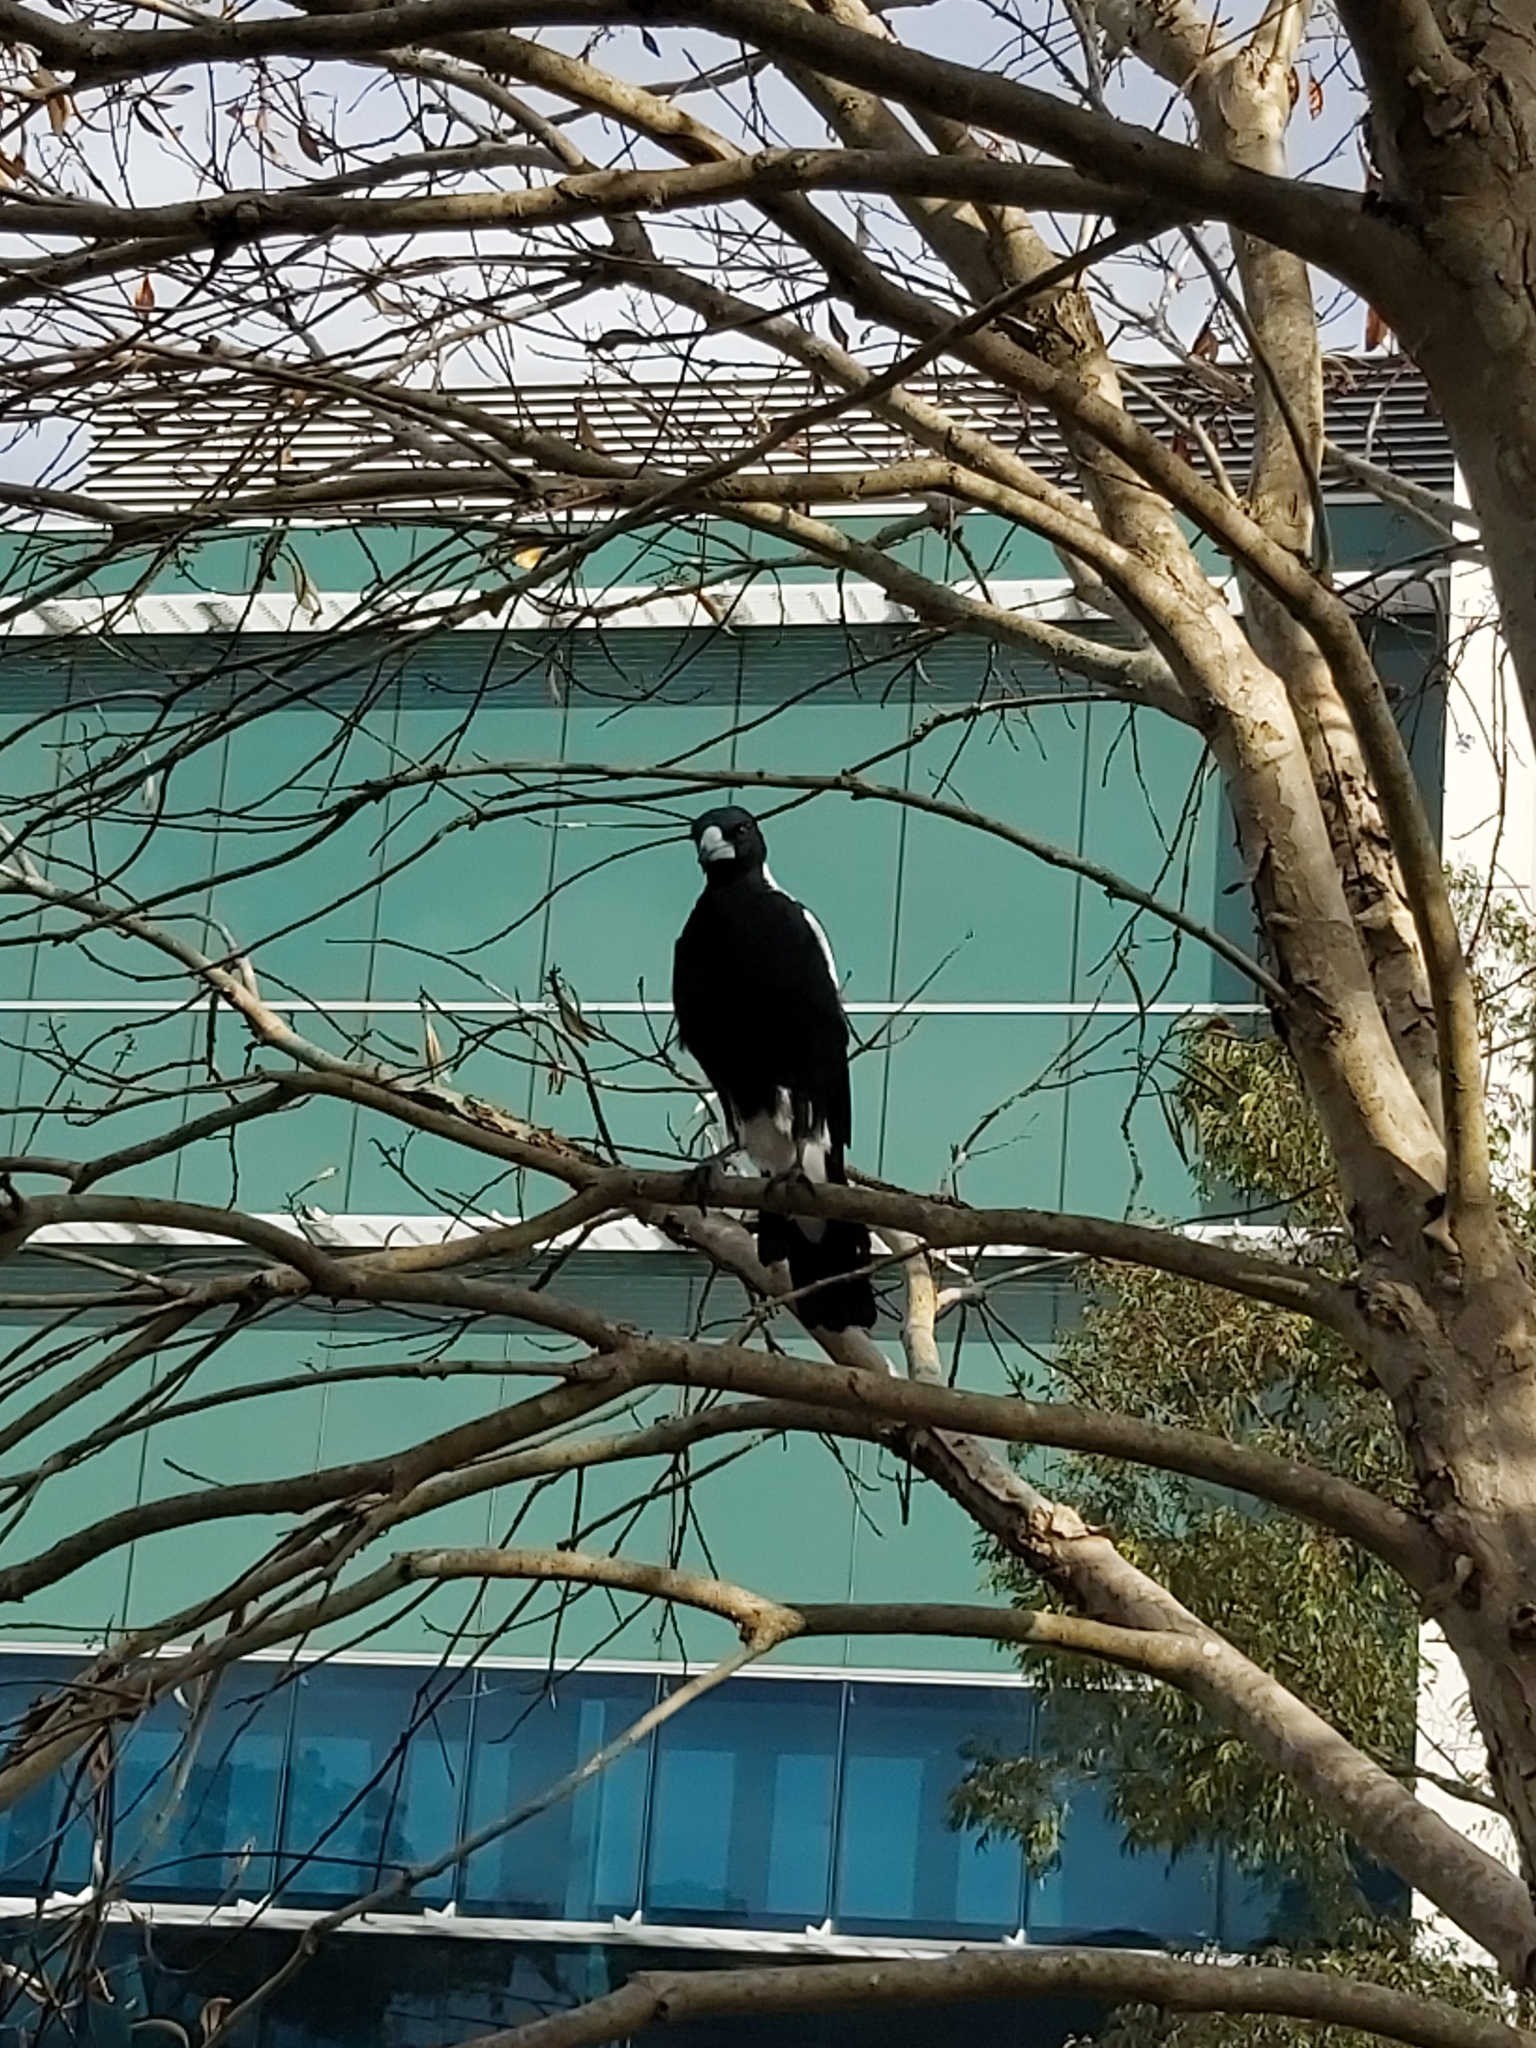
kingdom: Animalia
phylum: Chordata
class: Aves
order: Passeriformes
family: Cracticidae
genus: Gymnorhina
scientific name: Gymnorhina tibicen
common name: Australian magpie
